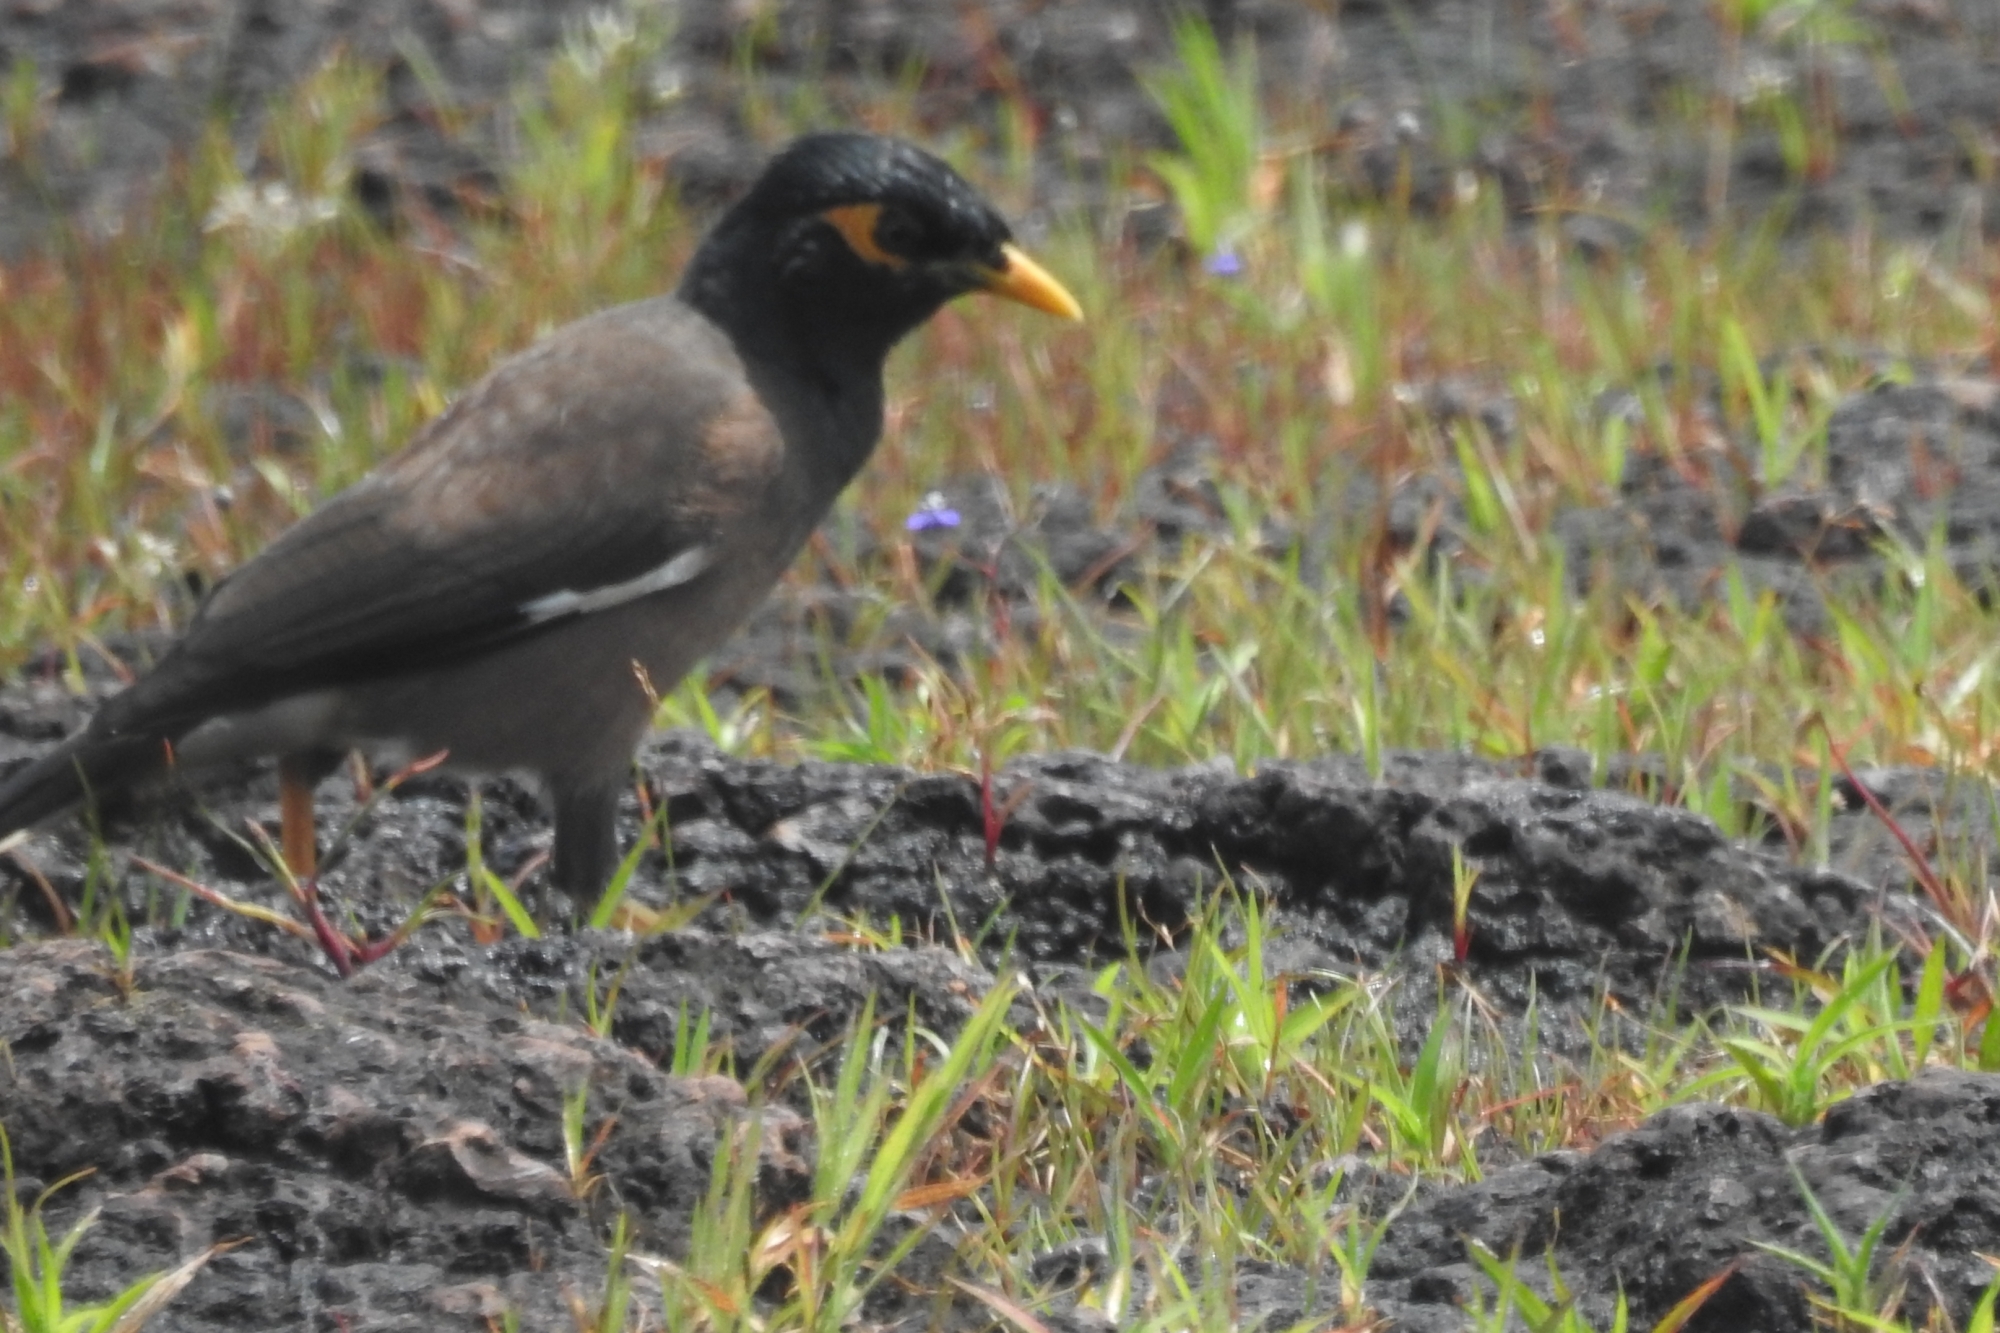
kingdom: Animalia
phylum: Chordata
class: Aves
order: Passeriformes
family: Sturnidae
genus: Acridotheres
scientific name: Acridotheres tristis
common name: Common myna
